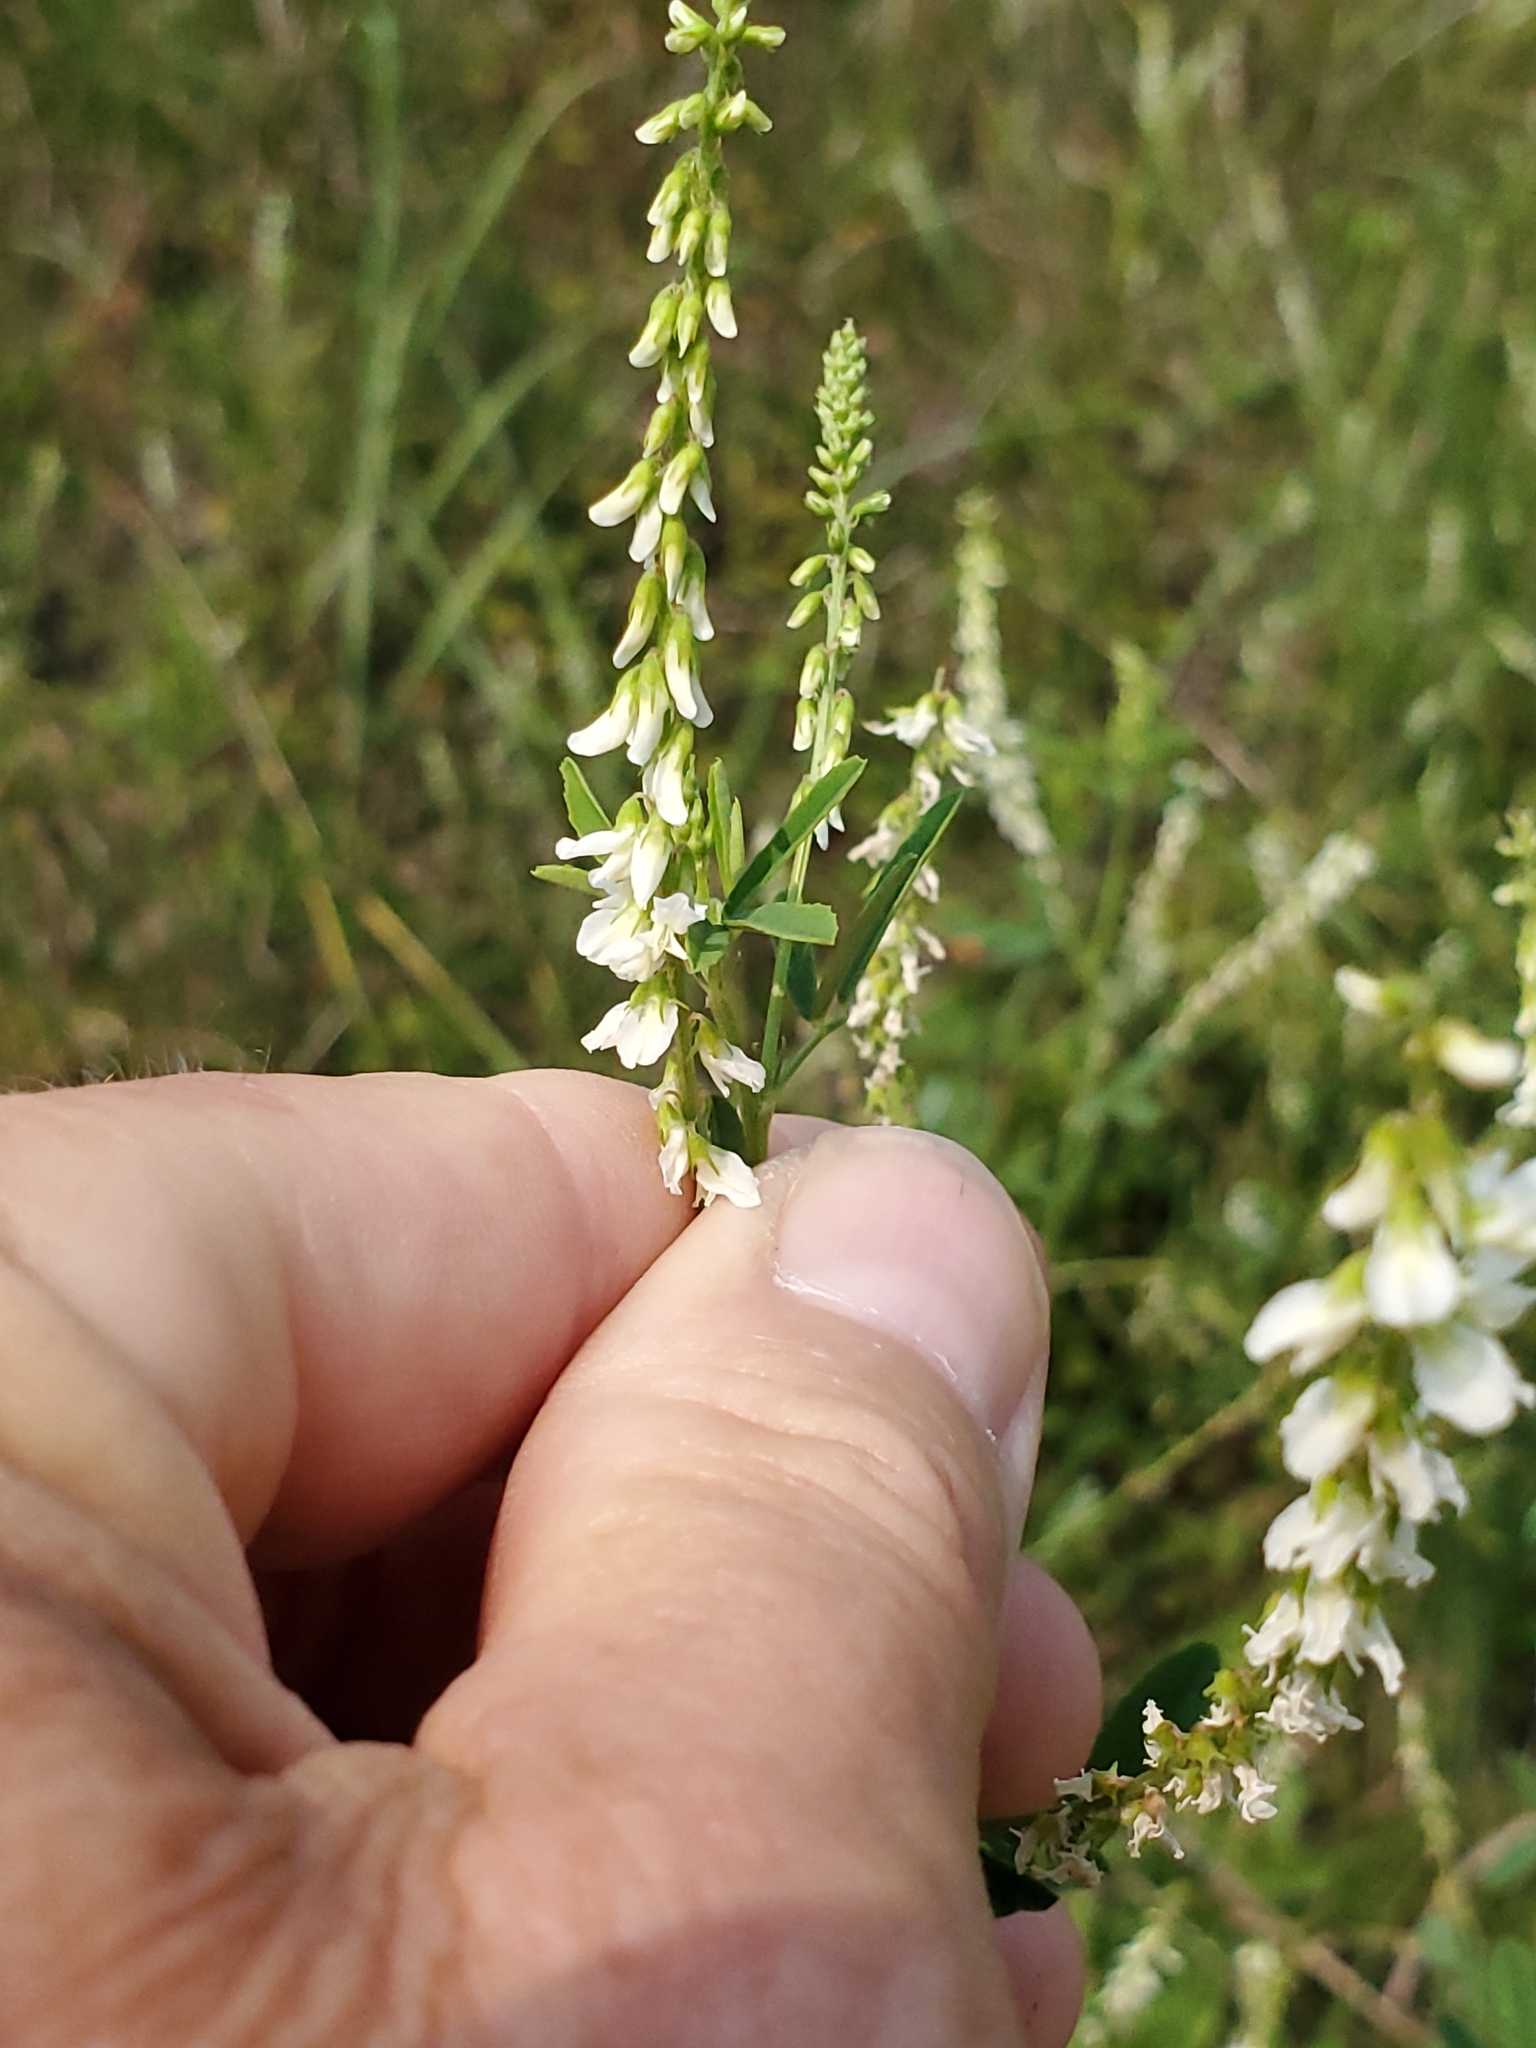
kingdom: Plantae
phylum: Tracheophyta
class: Magnoliopsida
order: Fabales
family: Fabaceae
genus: Melilotus
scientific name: Melilotus albus
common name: White melilot
